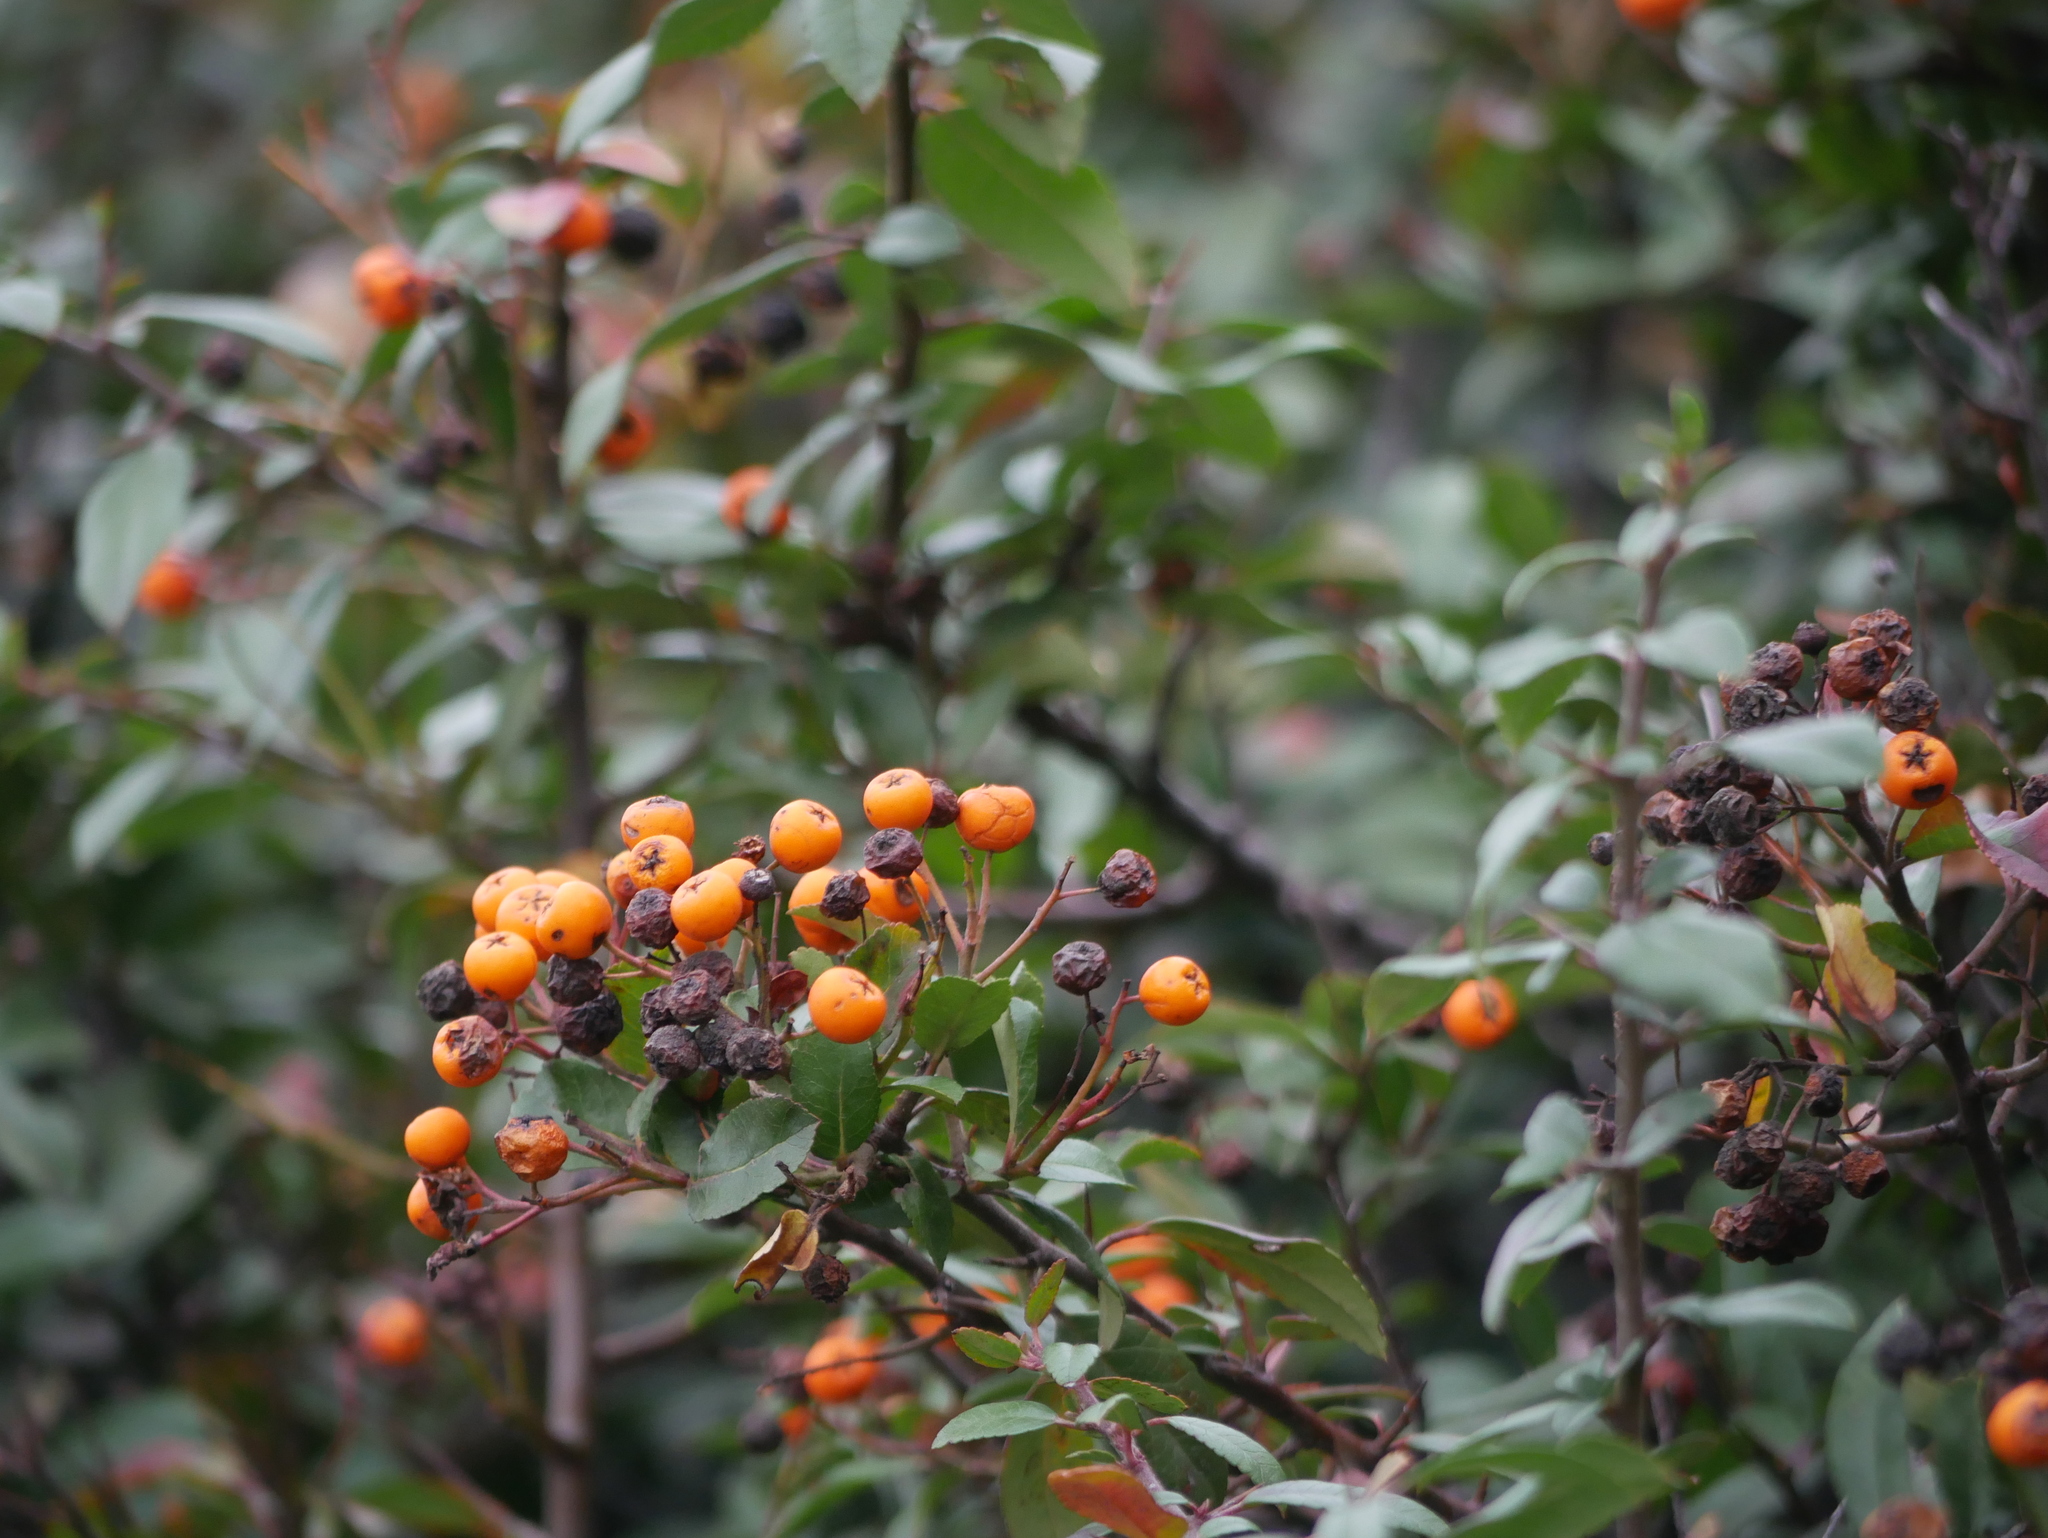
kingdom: Plantae
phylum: Tracheophyta
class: Magnoliopsida
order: Rosales
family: Rosaceae
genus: Pyracantha
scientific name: Pyracantha coccinea
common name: Firethorn
